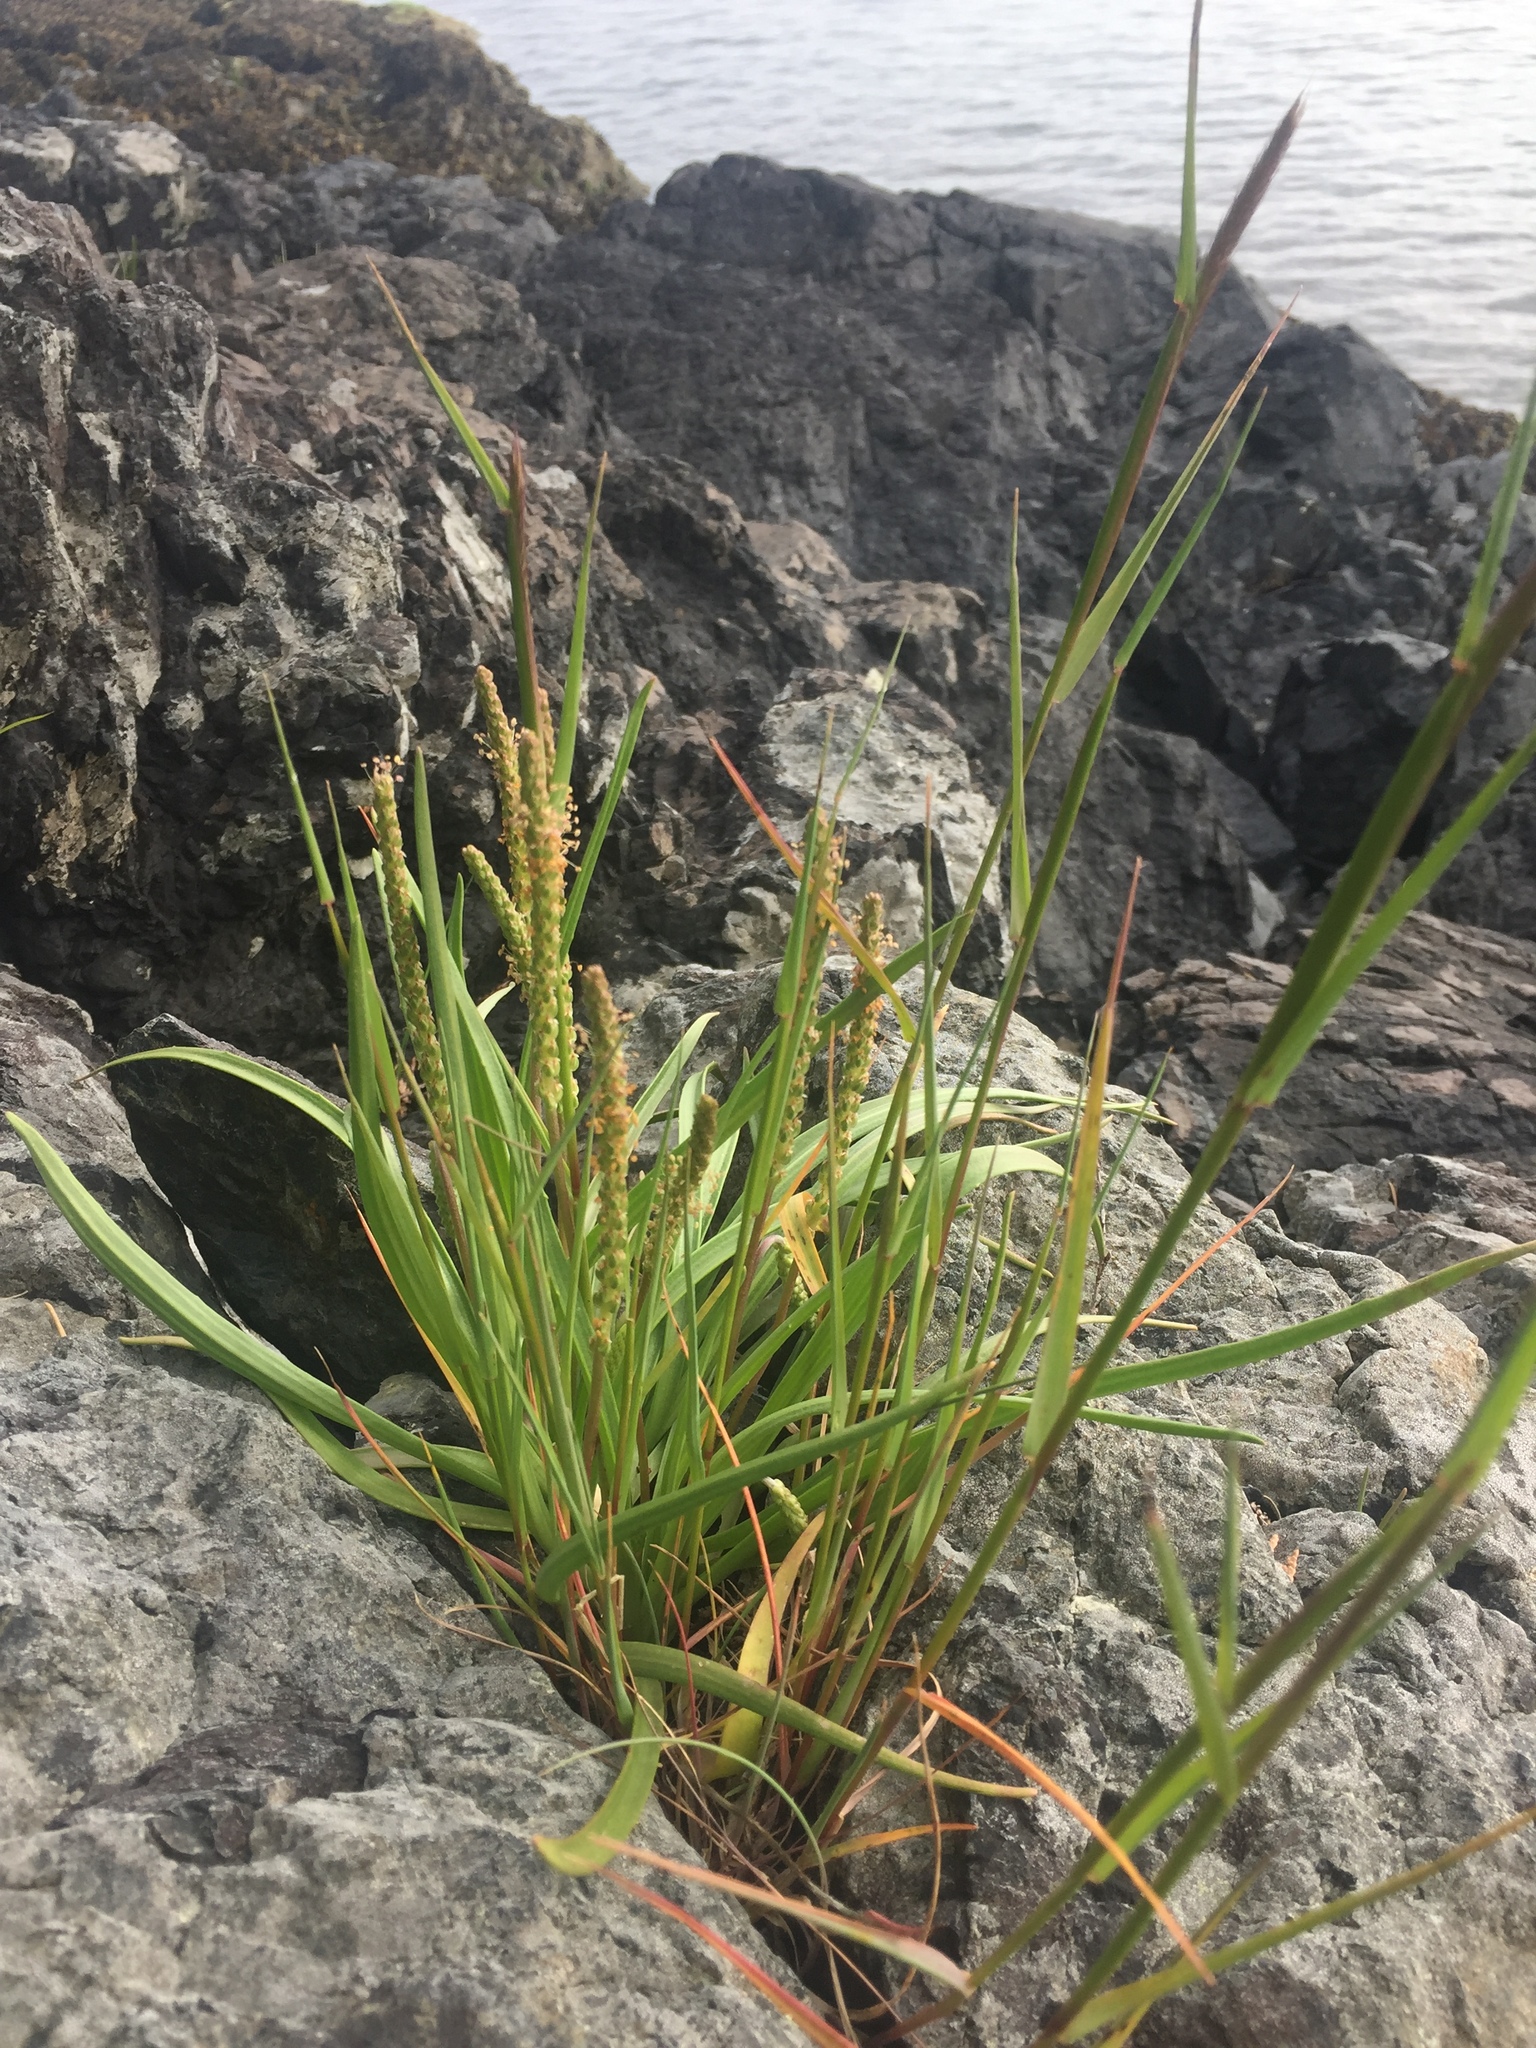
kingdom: Plantae
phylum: Tracheophyta
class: Magnoliopsida
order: Lamiales
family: Plantaginaceae
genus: Plantago
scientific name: Plantago maritima
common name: Sea plantain
